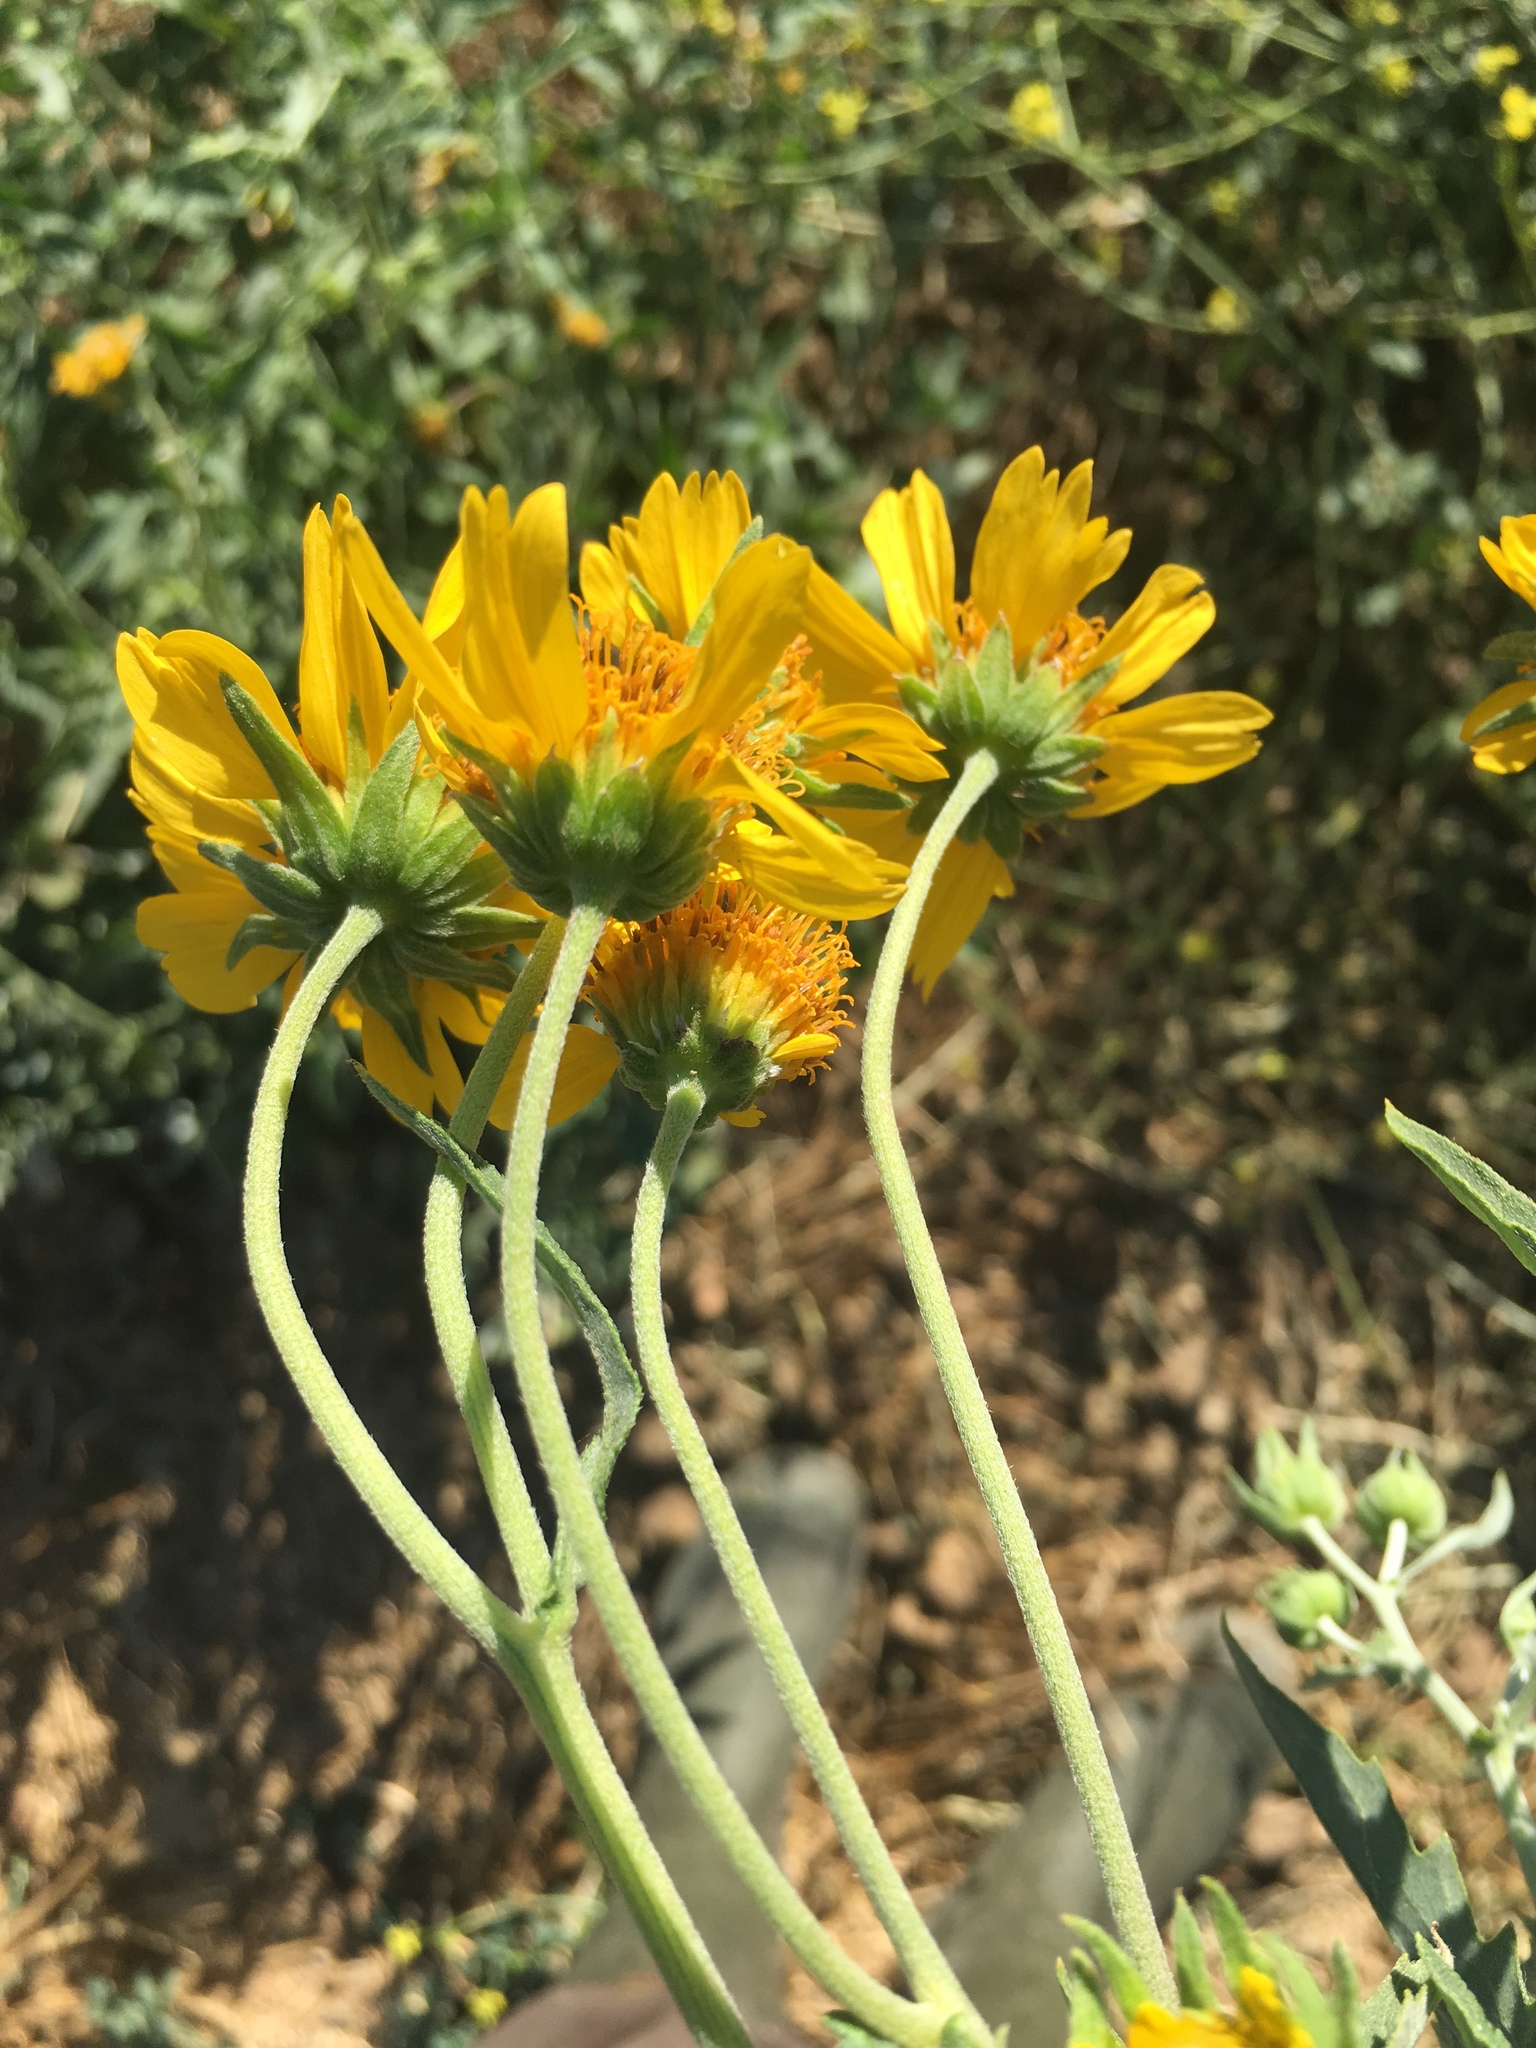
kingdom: Plantae
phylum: Tracheophyta
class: Magnoliopsida
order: Asterales
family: Asteraceae
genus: Verbesina
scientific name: Verbesina encelioides
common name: Golden crownbeard
